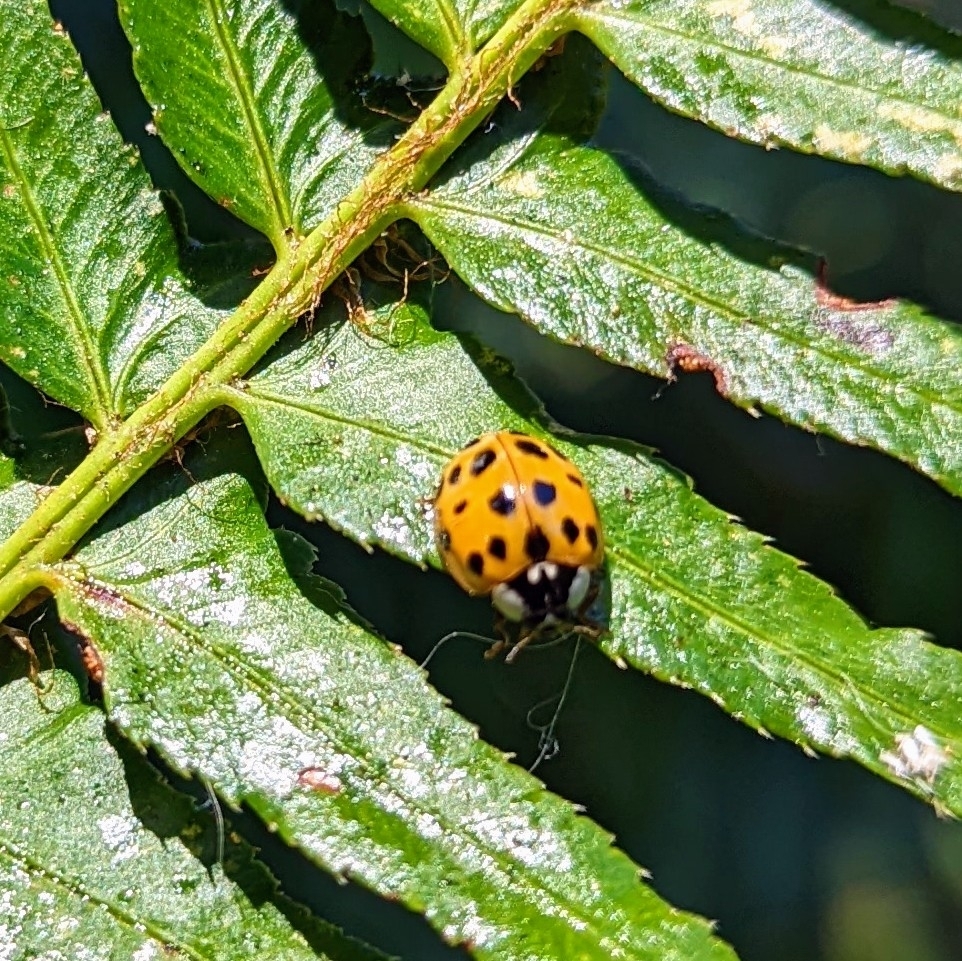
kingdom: Animalia
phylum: Arthropoda
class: Insecta
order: Coleoptera
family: Coccinellidae
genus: Harmonia
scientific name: Harmonia axyridis
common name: Harlequin ladybird
